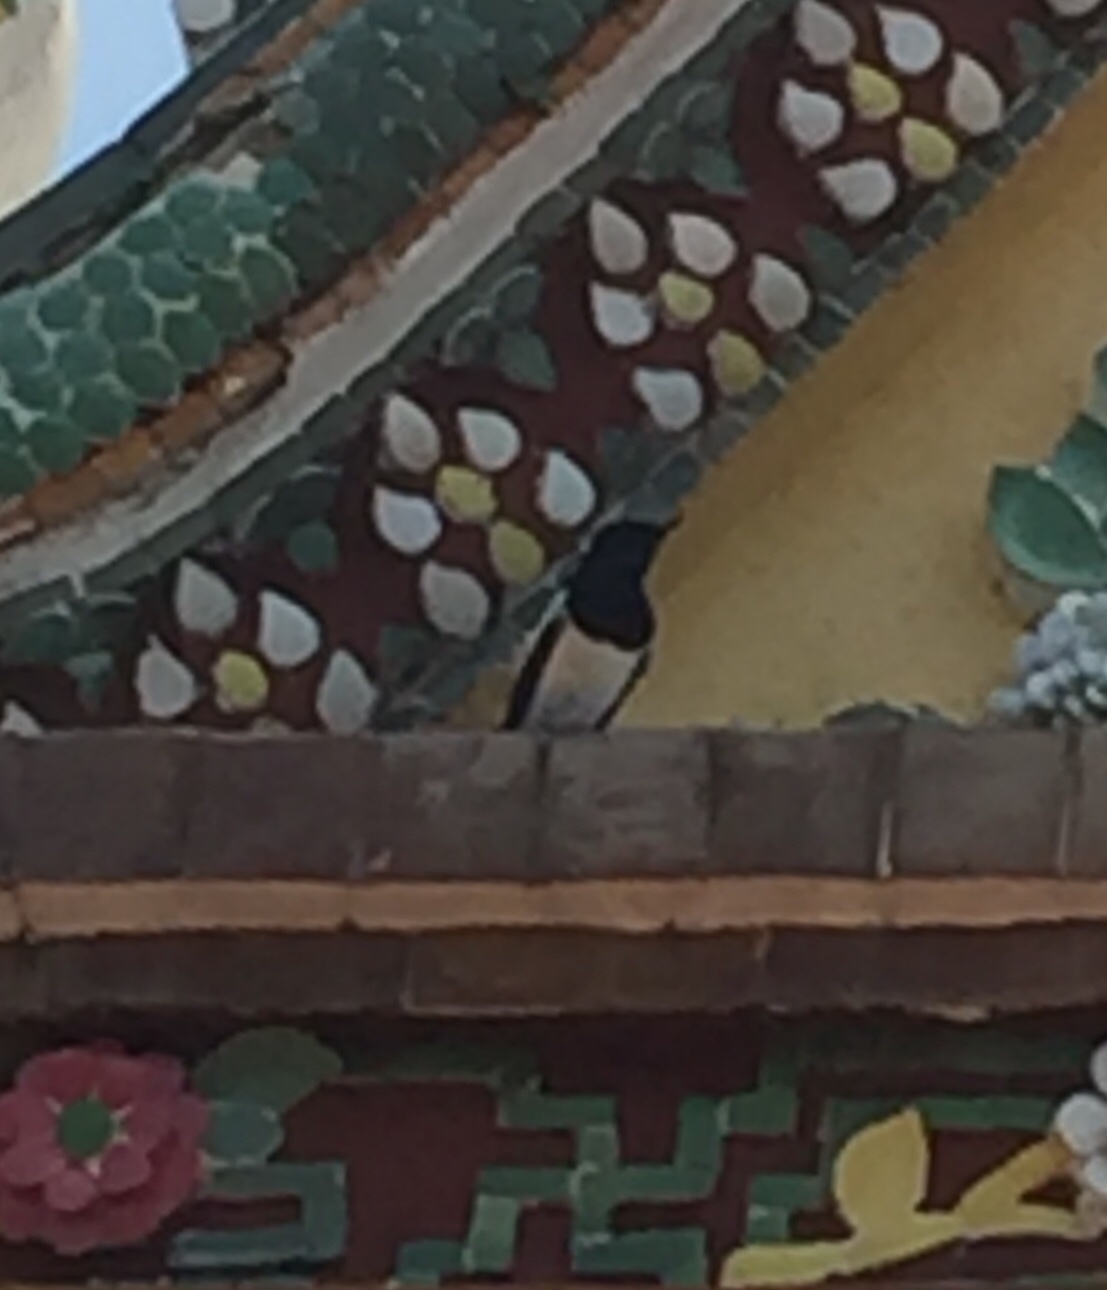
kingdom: Animalia
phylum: Chordata
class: Aves
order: Passeriformes
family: Muscicapidae
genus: Copsychus
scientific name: Copsychus saularis
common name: Oriental magpie-robin
